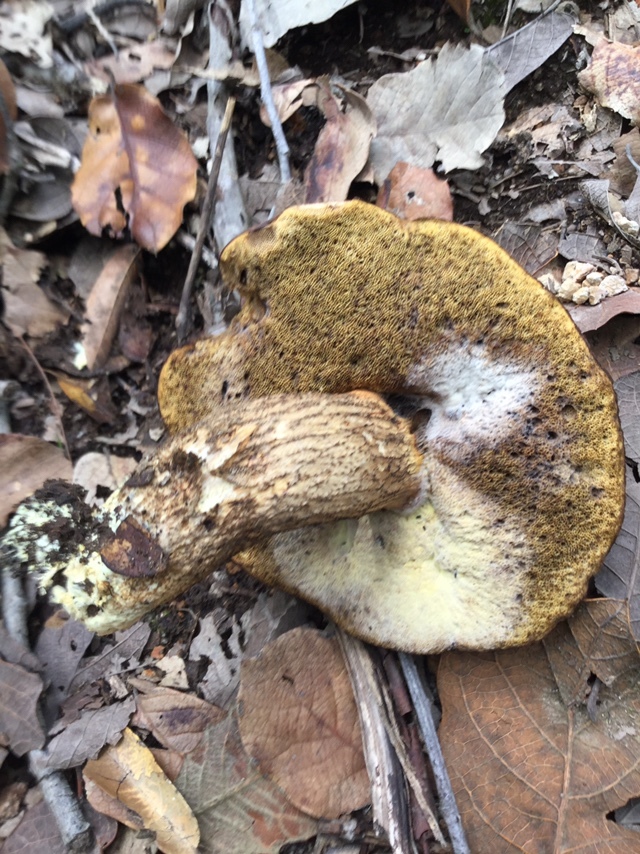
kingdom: Fungi
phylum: Basidiomycota
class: Agaricomycetes
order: Boletales
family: Boletaceae
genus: Leccinellum
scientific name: Leccinellum rugosiceps
